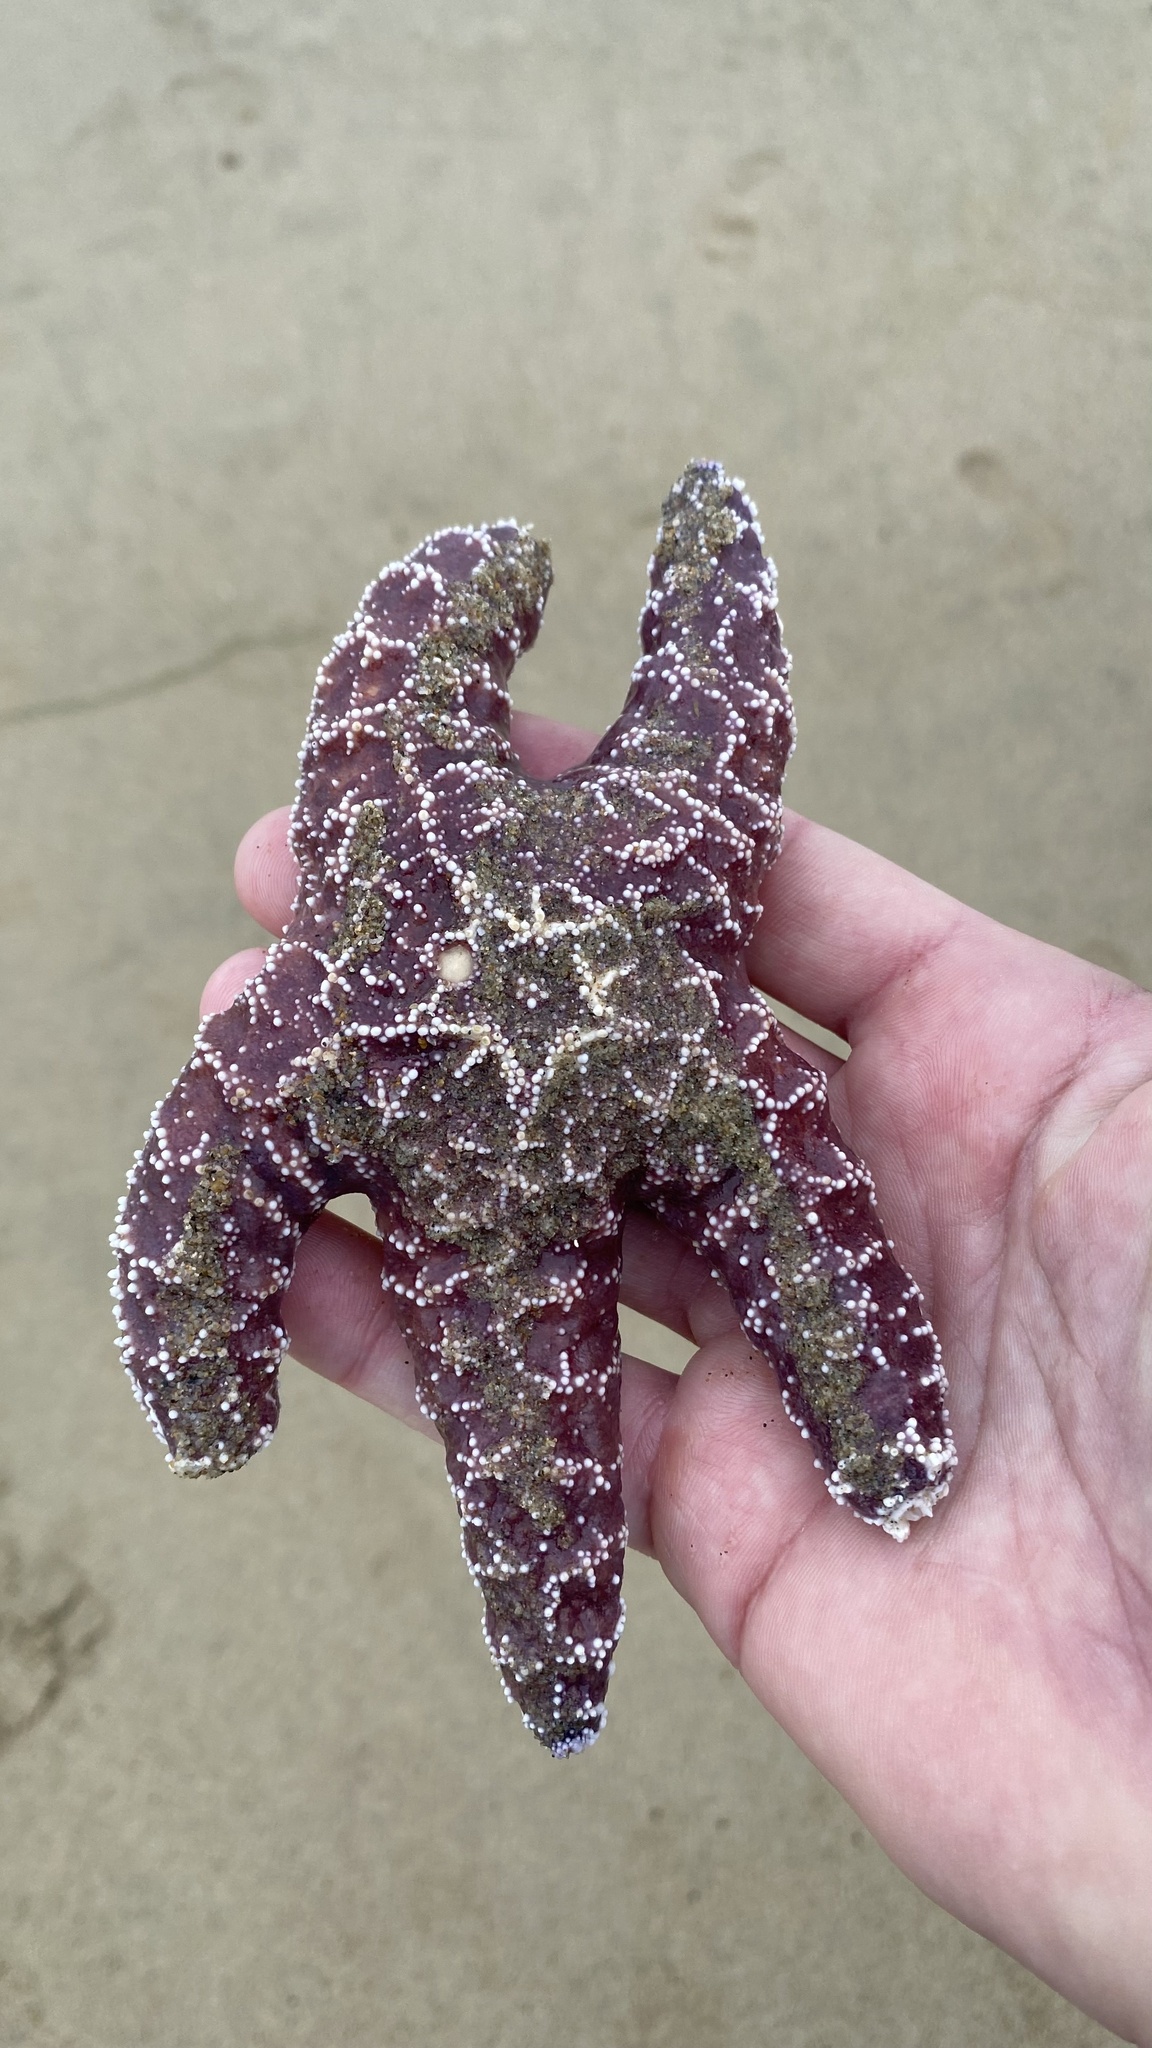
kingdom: Animalia
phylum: Echinodermata
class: Asteroidea
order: Forcipulatida
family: Asteriidae
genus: Pisaster
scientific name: Pisaster ochraceus
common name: Ochre stars
